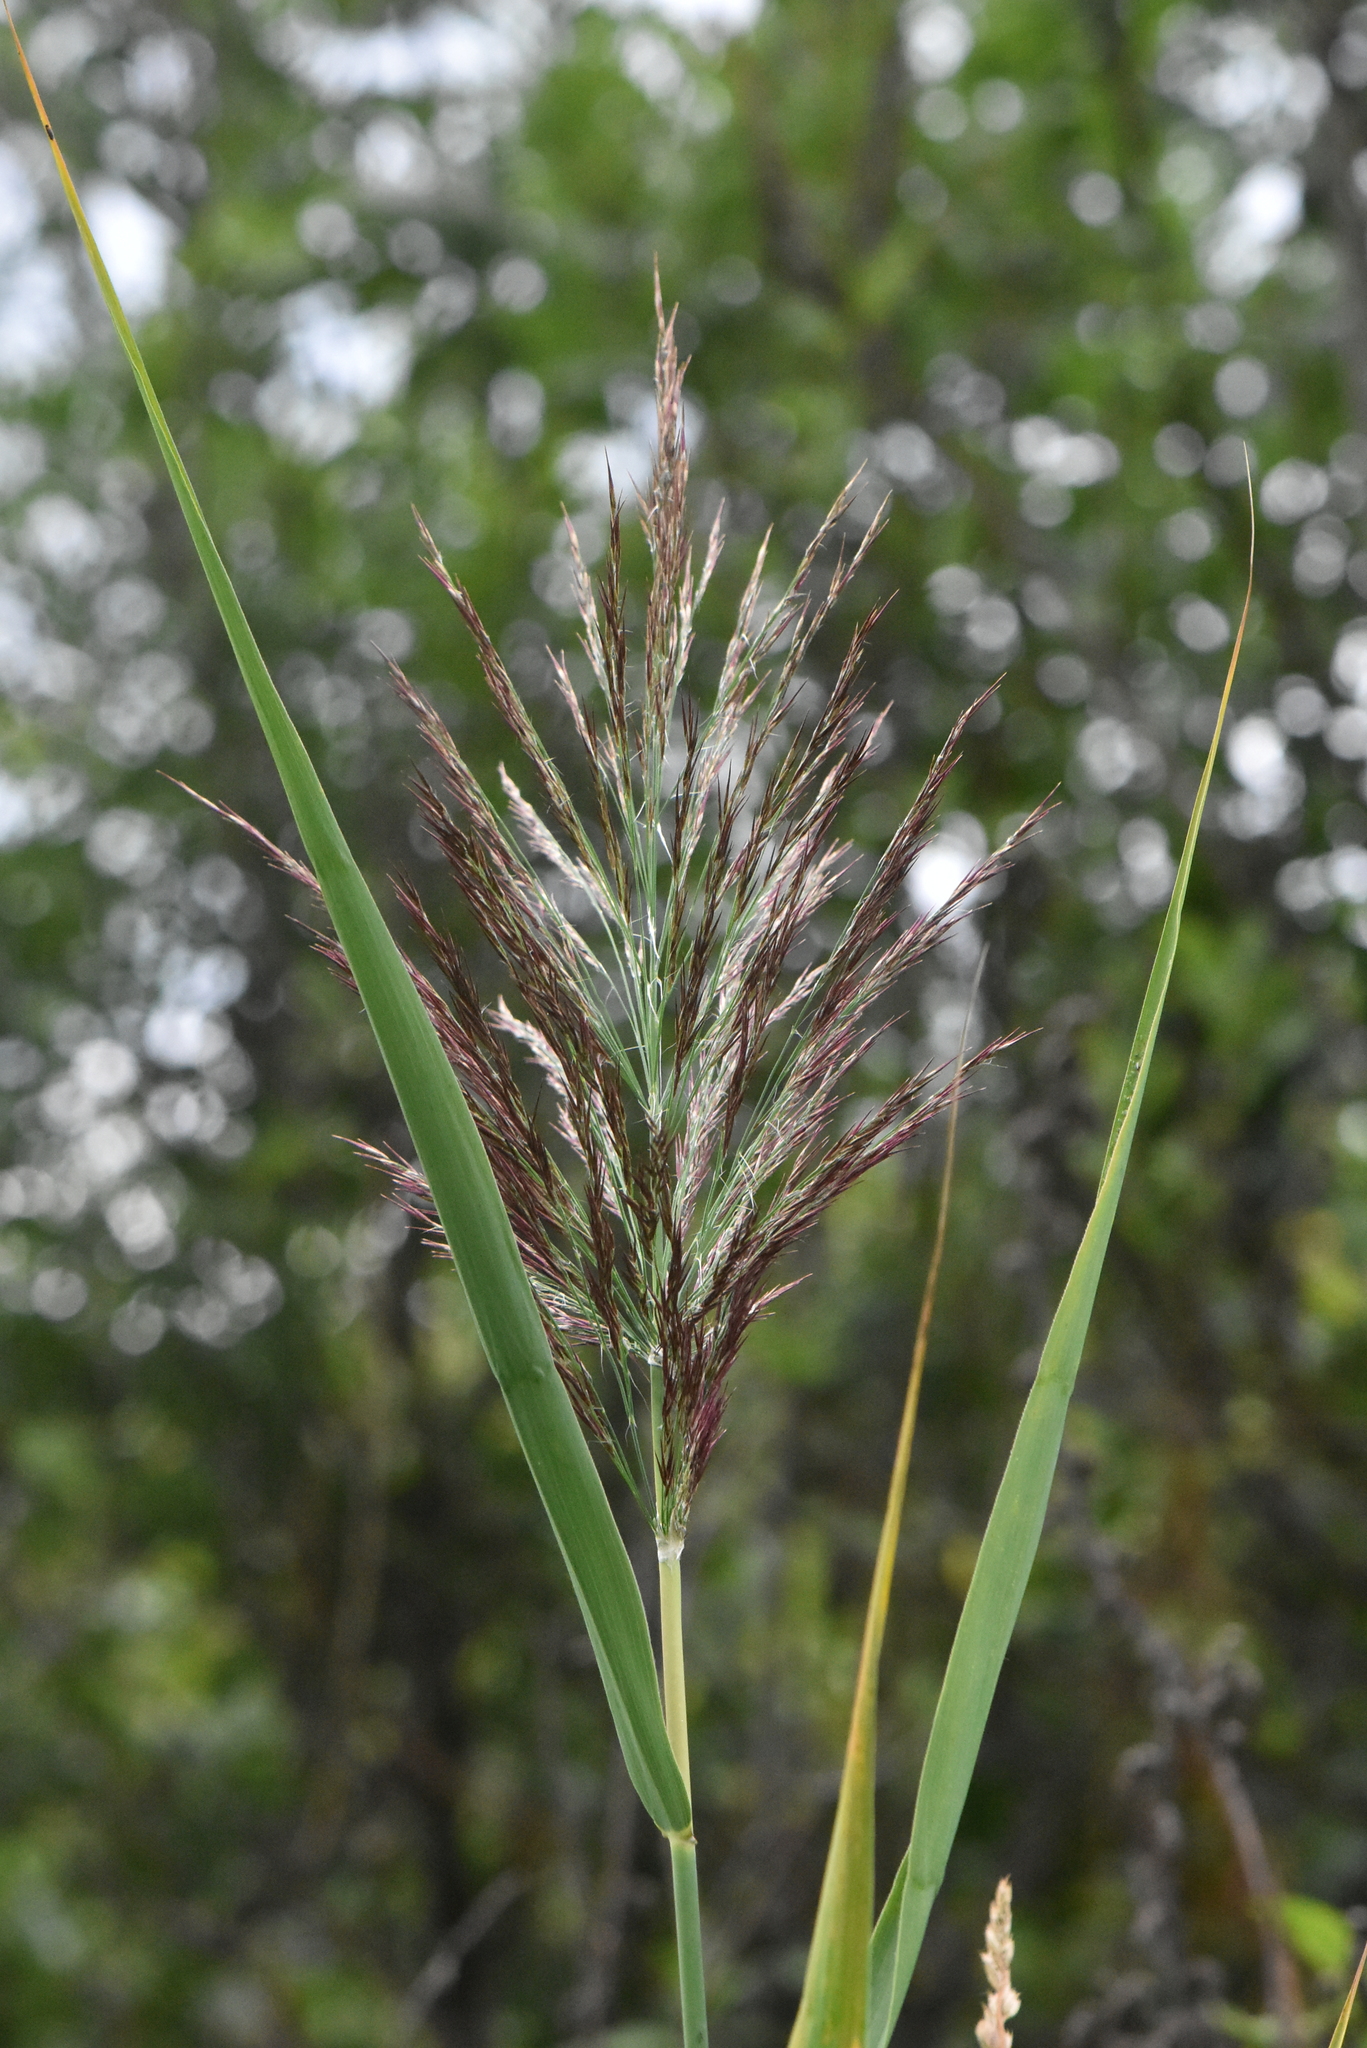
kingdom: Plantae
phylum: Tracheophyta
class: Liliopsida
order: Poales
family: Poaceae
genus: Phragmites
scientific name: Phragmites australis
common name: Common reed
